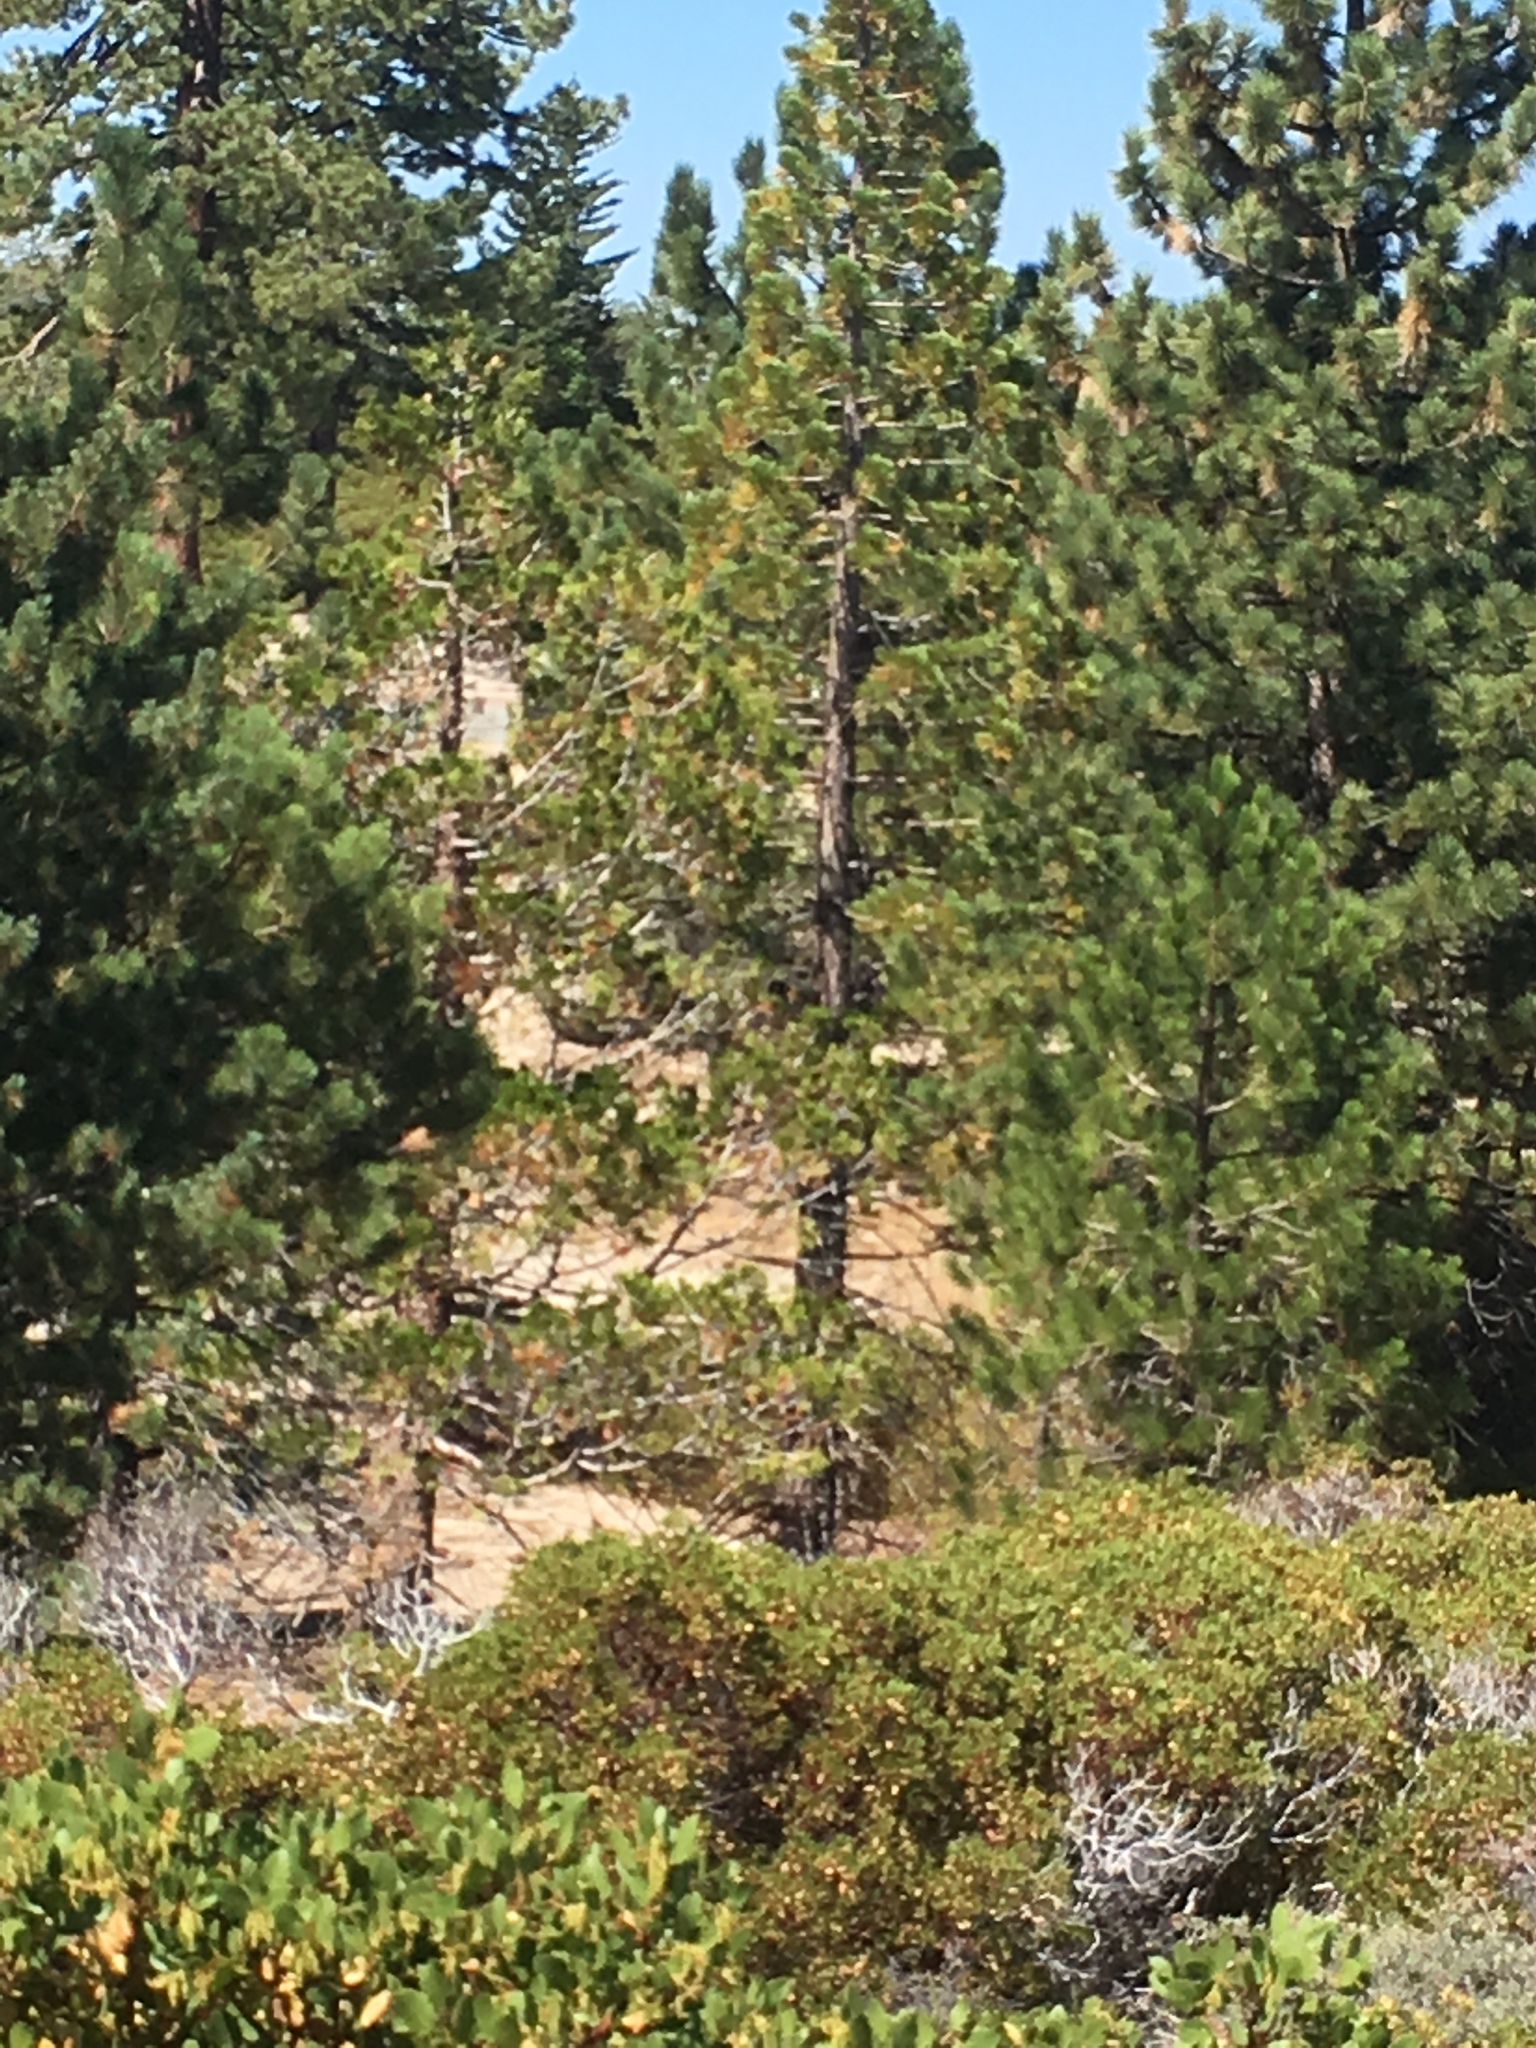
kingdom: Plantae
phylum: Tracheophyta
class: Pinopsida
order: Pinales
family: Cupressaceae
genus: Calocedrus
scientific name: Calocedrus decurrens
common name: Californian incense-cedar
